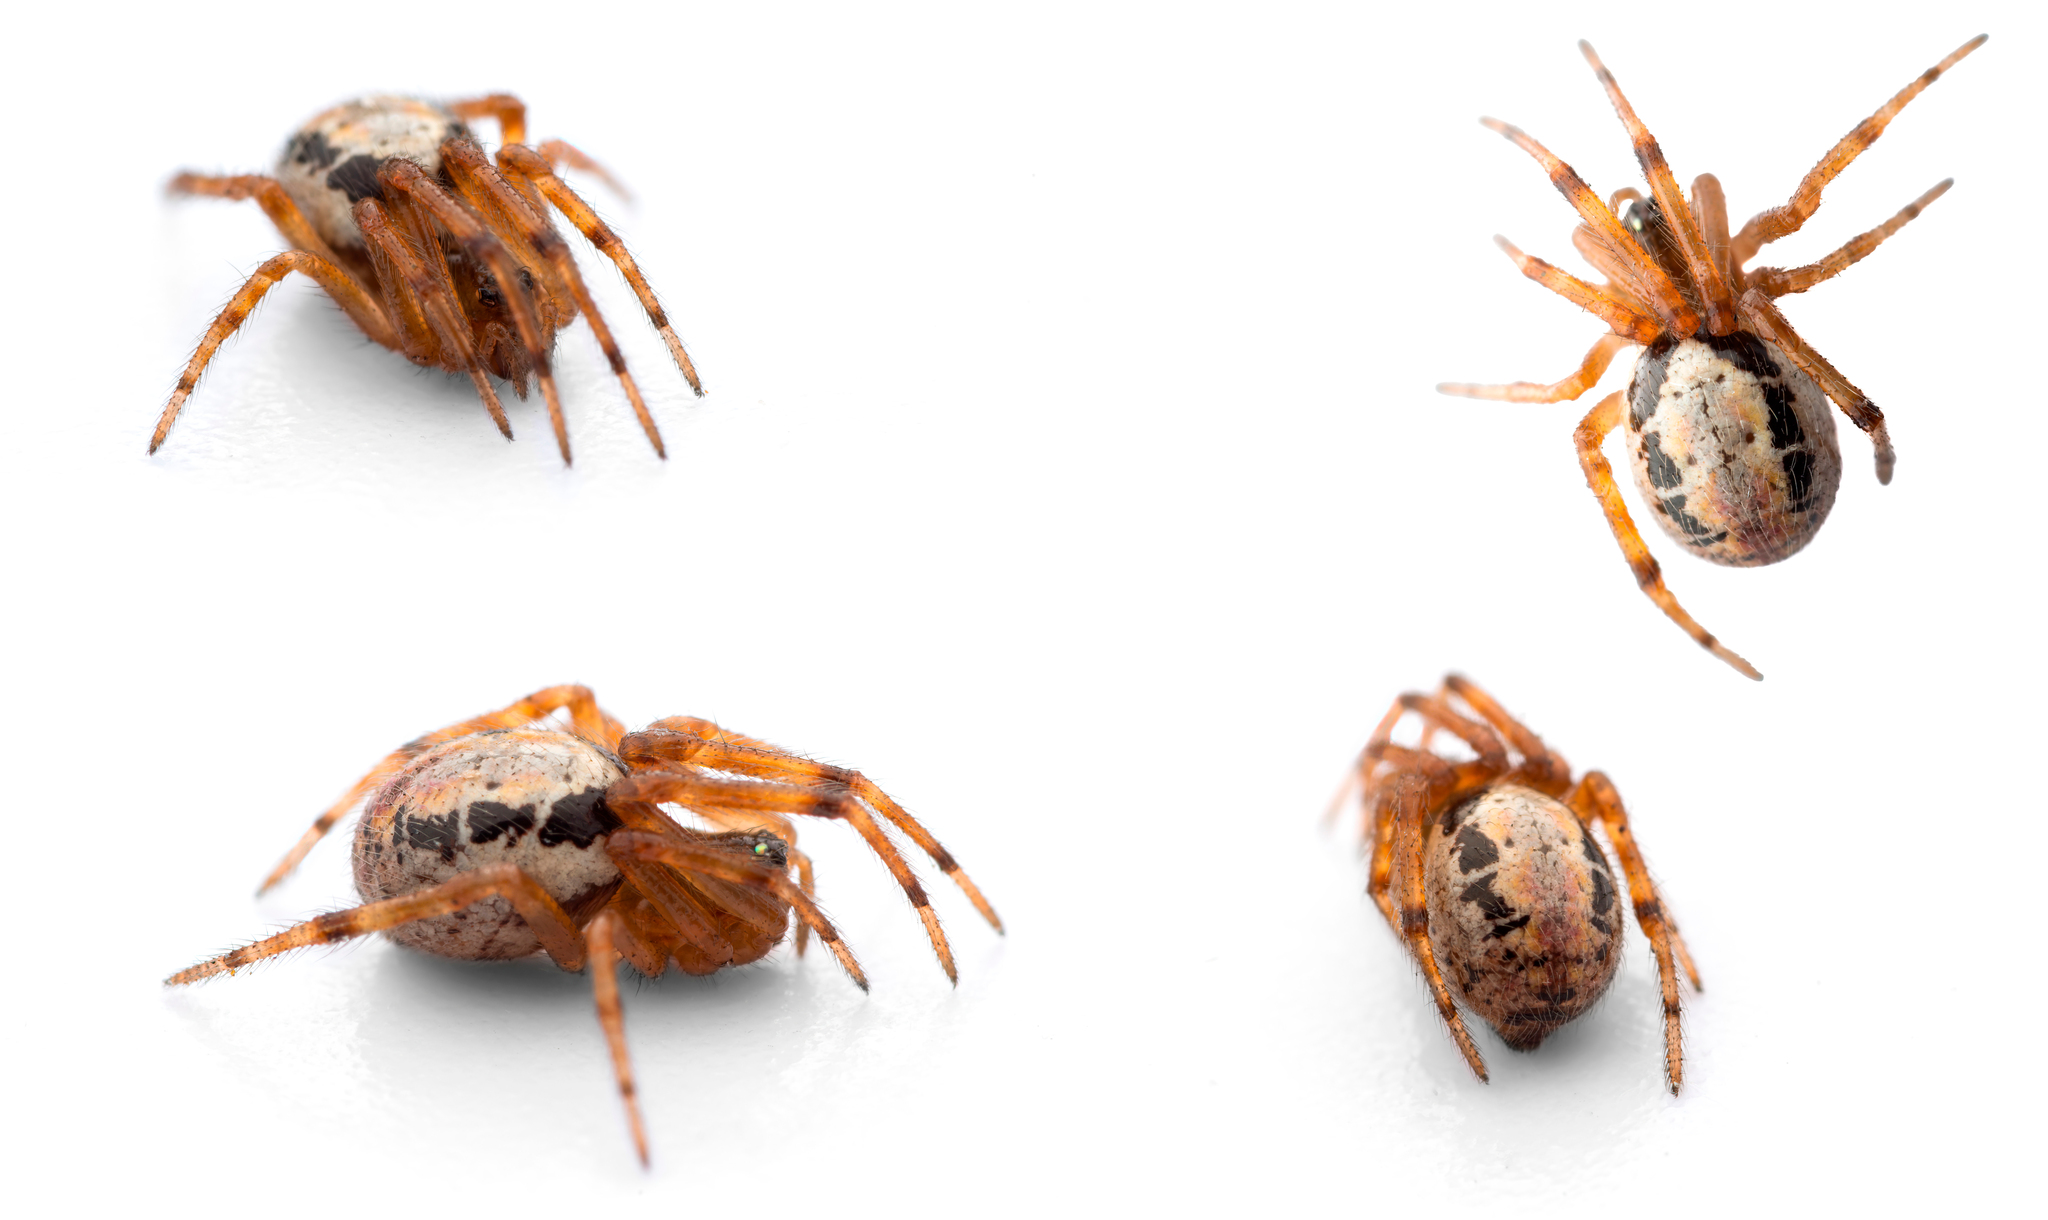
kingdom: Animalia
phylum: Arthropoda
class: Arachnida
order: Araneae
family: Theridiidae
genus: Steatoda
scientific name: Steatoda nobilis
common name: Cobweb weaver
